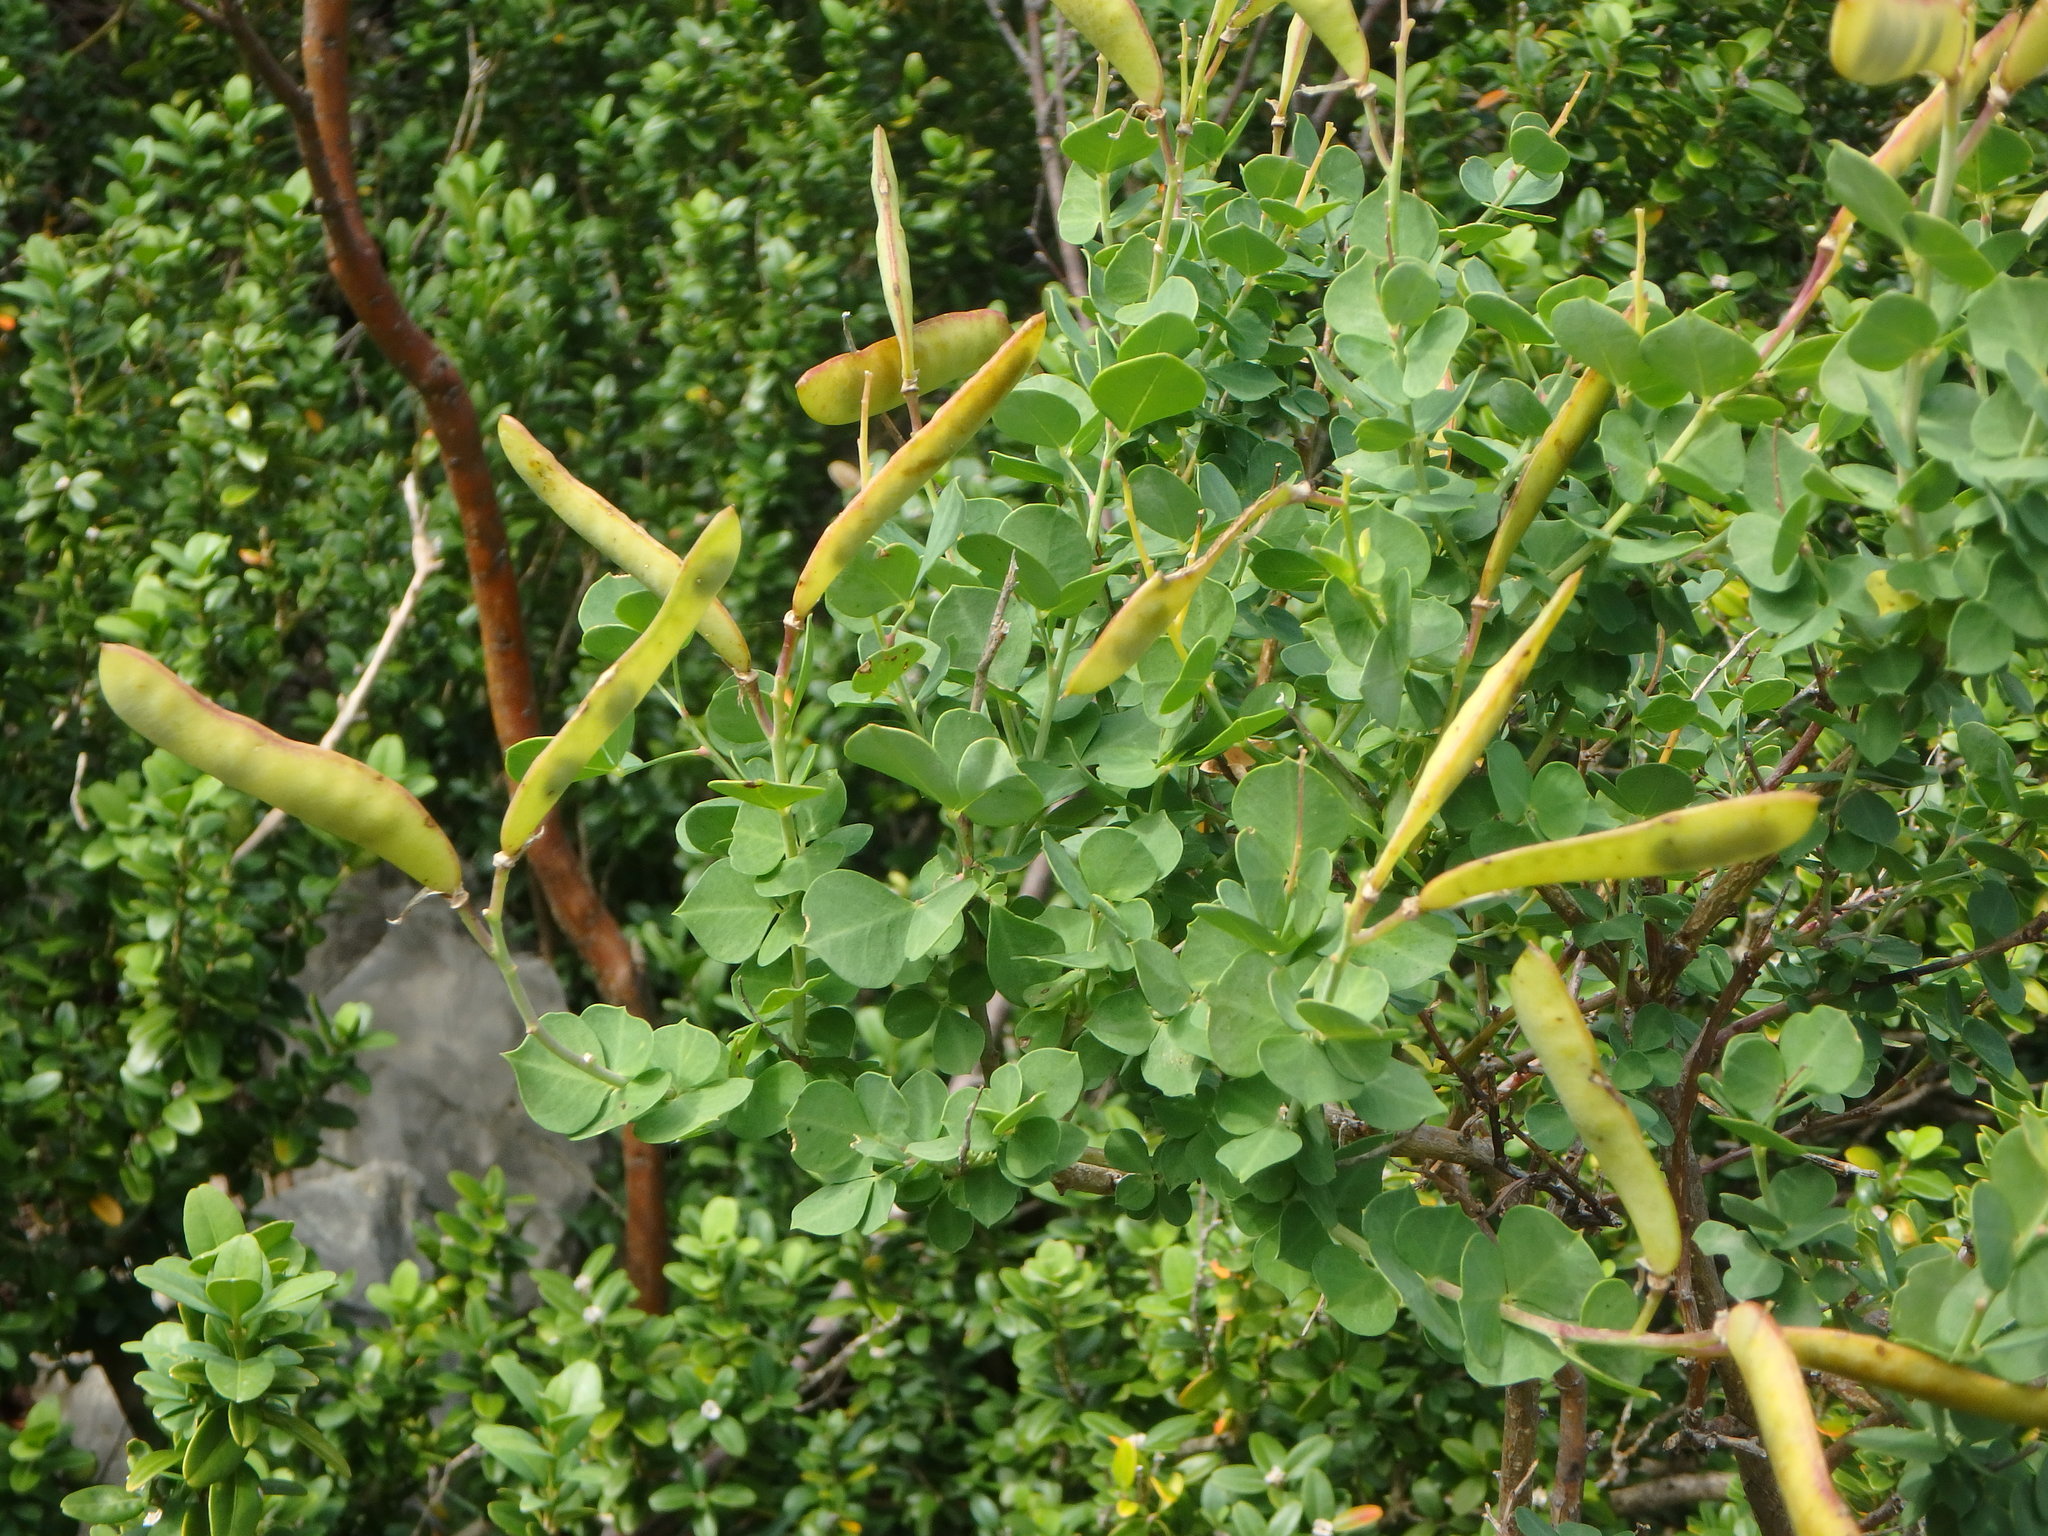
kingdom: Plantae
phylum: Tracheophyta
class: Magnoliopsida
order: Fabales
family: Fabaceae
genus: Cytisophyllum
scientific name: Cytisophyllum sessilifolium
